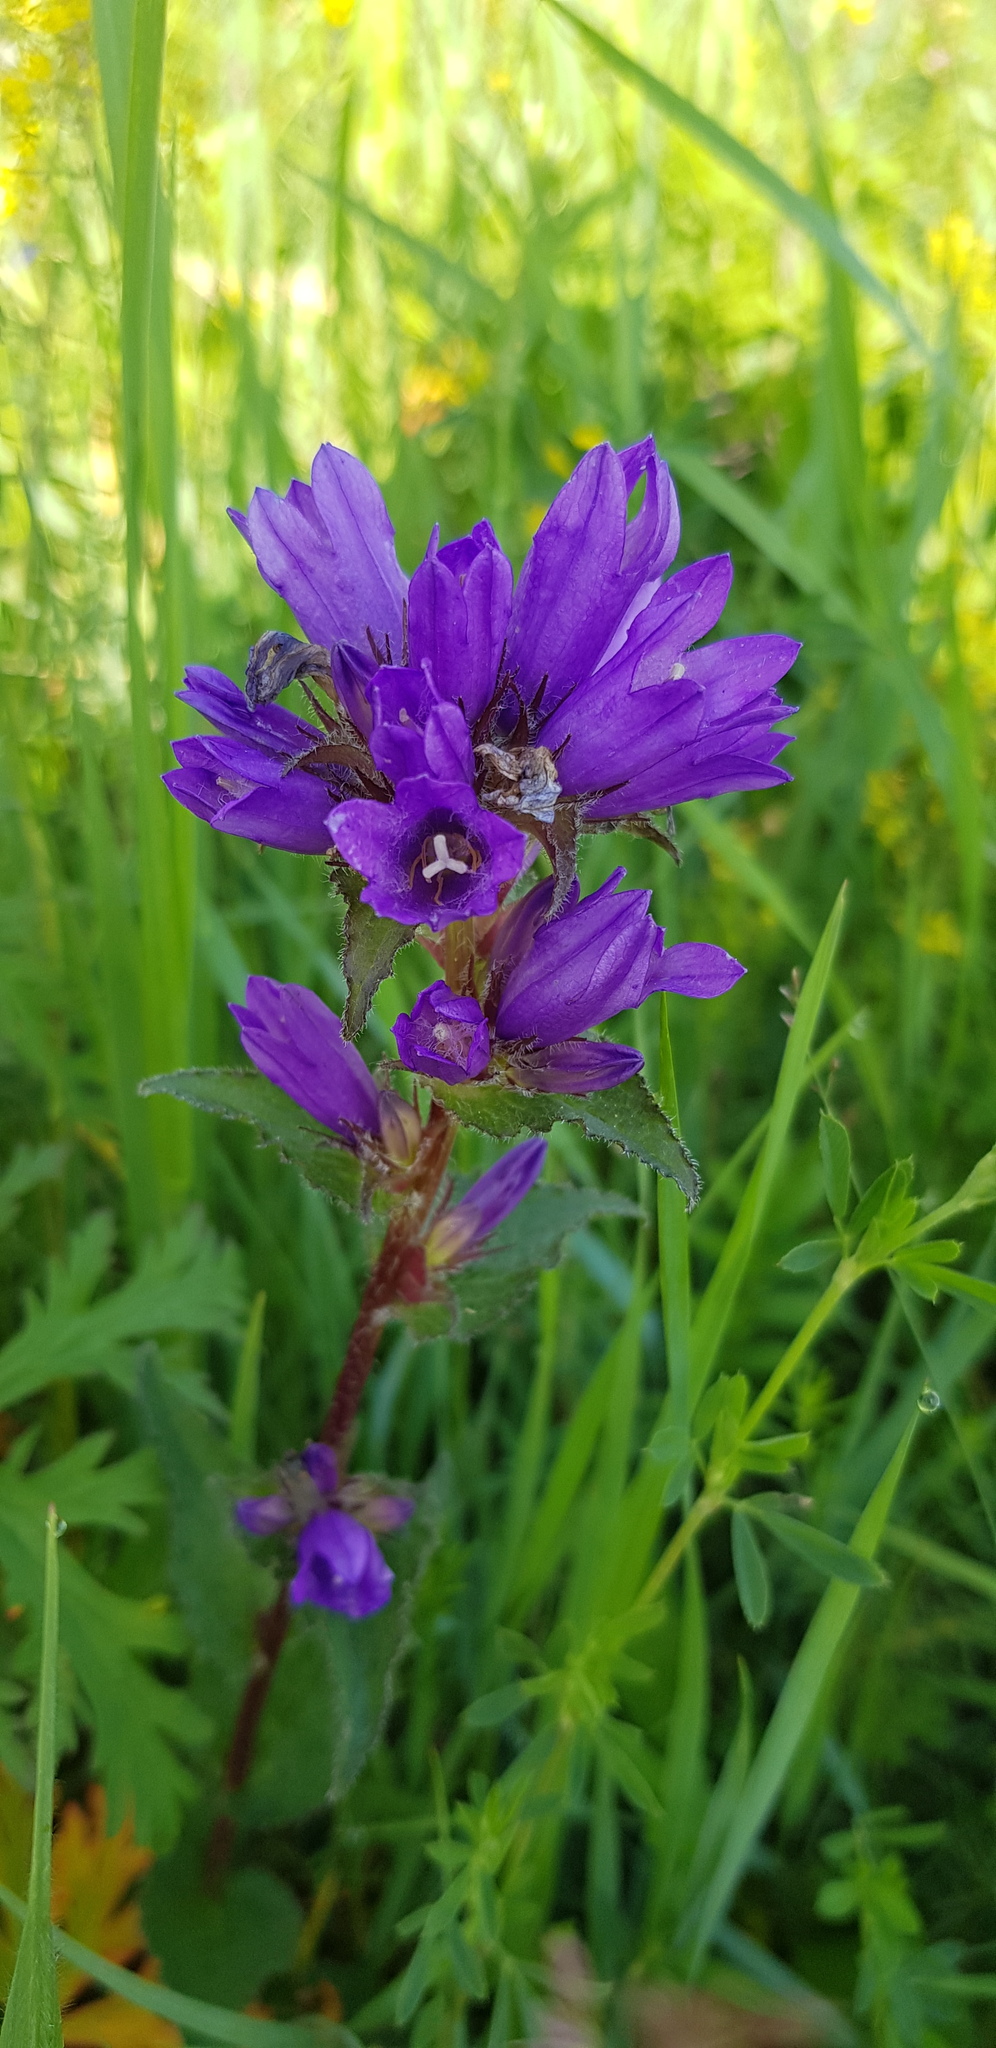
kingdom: Plantae
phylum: Tracheophyta
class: Magnoliopsida
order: Asterales
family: Campanulaceae
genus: Campanula
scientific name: Campanula glomerata
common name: Clustered bellflower
